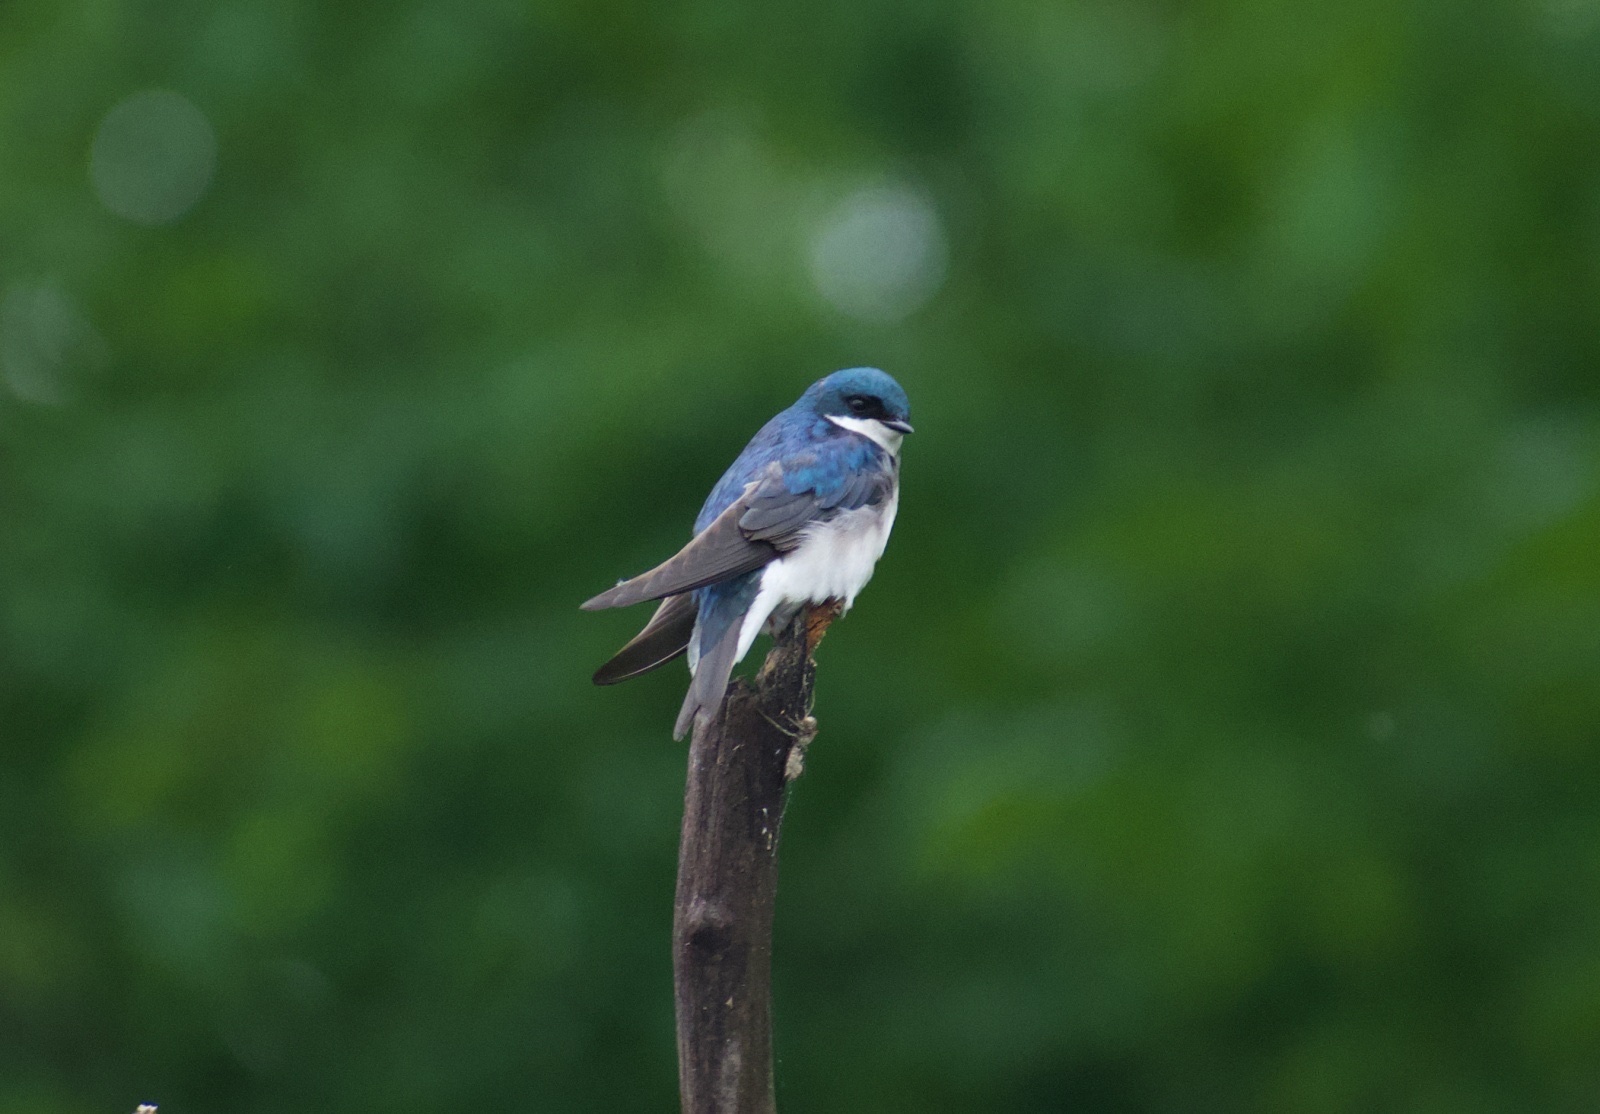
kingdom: Animalia
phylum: Chordata
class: Aves
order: Passeriformes
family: Hirundinidae
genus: Tachycineta
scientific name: Tachycineta bicolor
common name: Tree swallow
